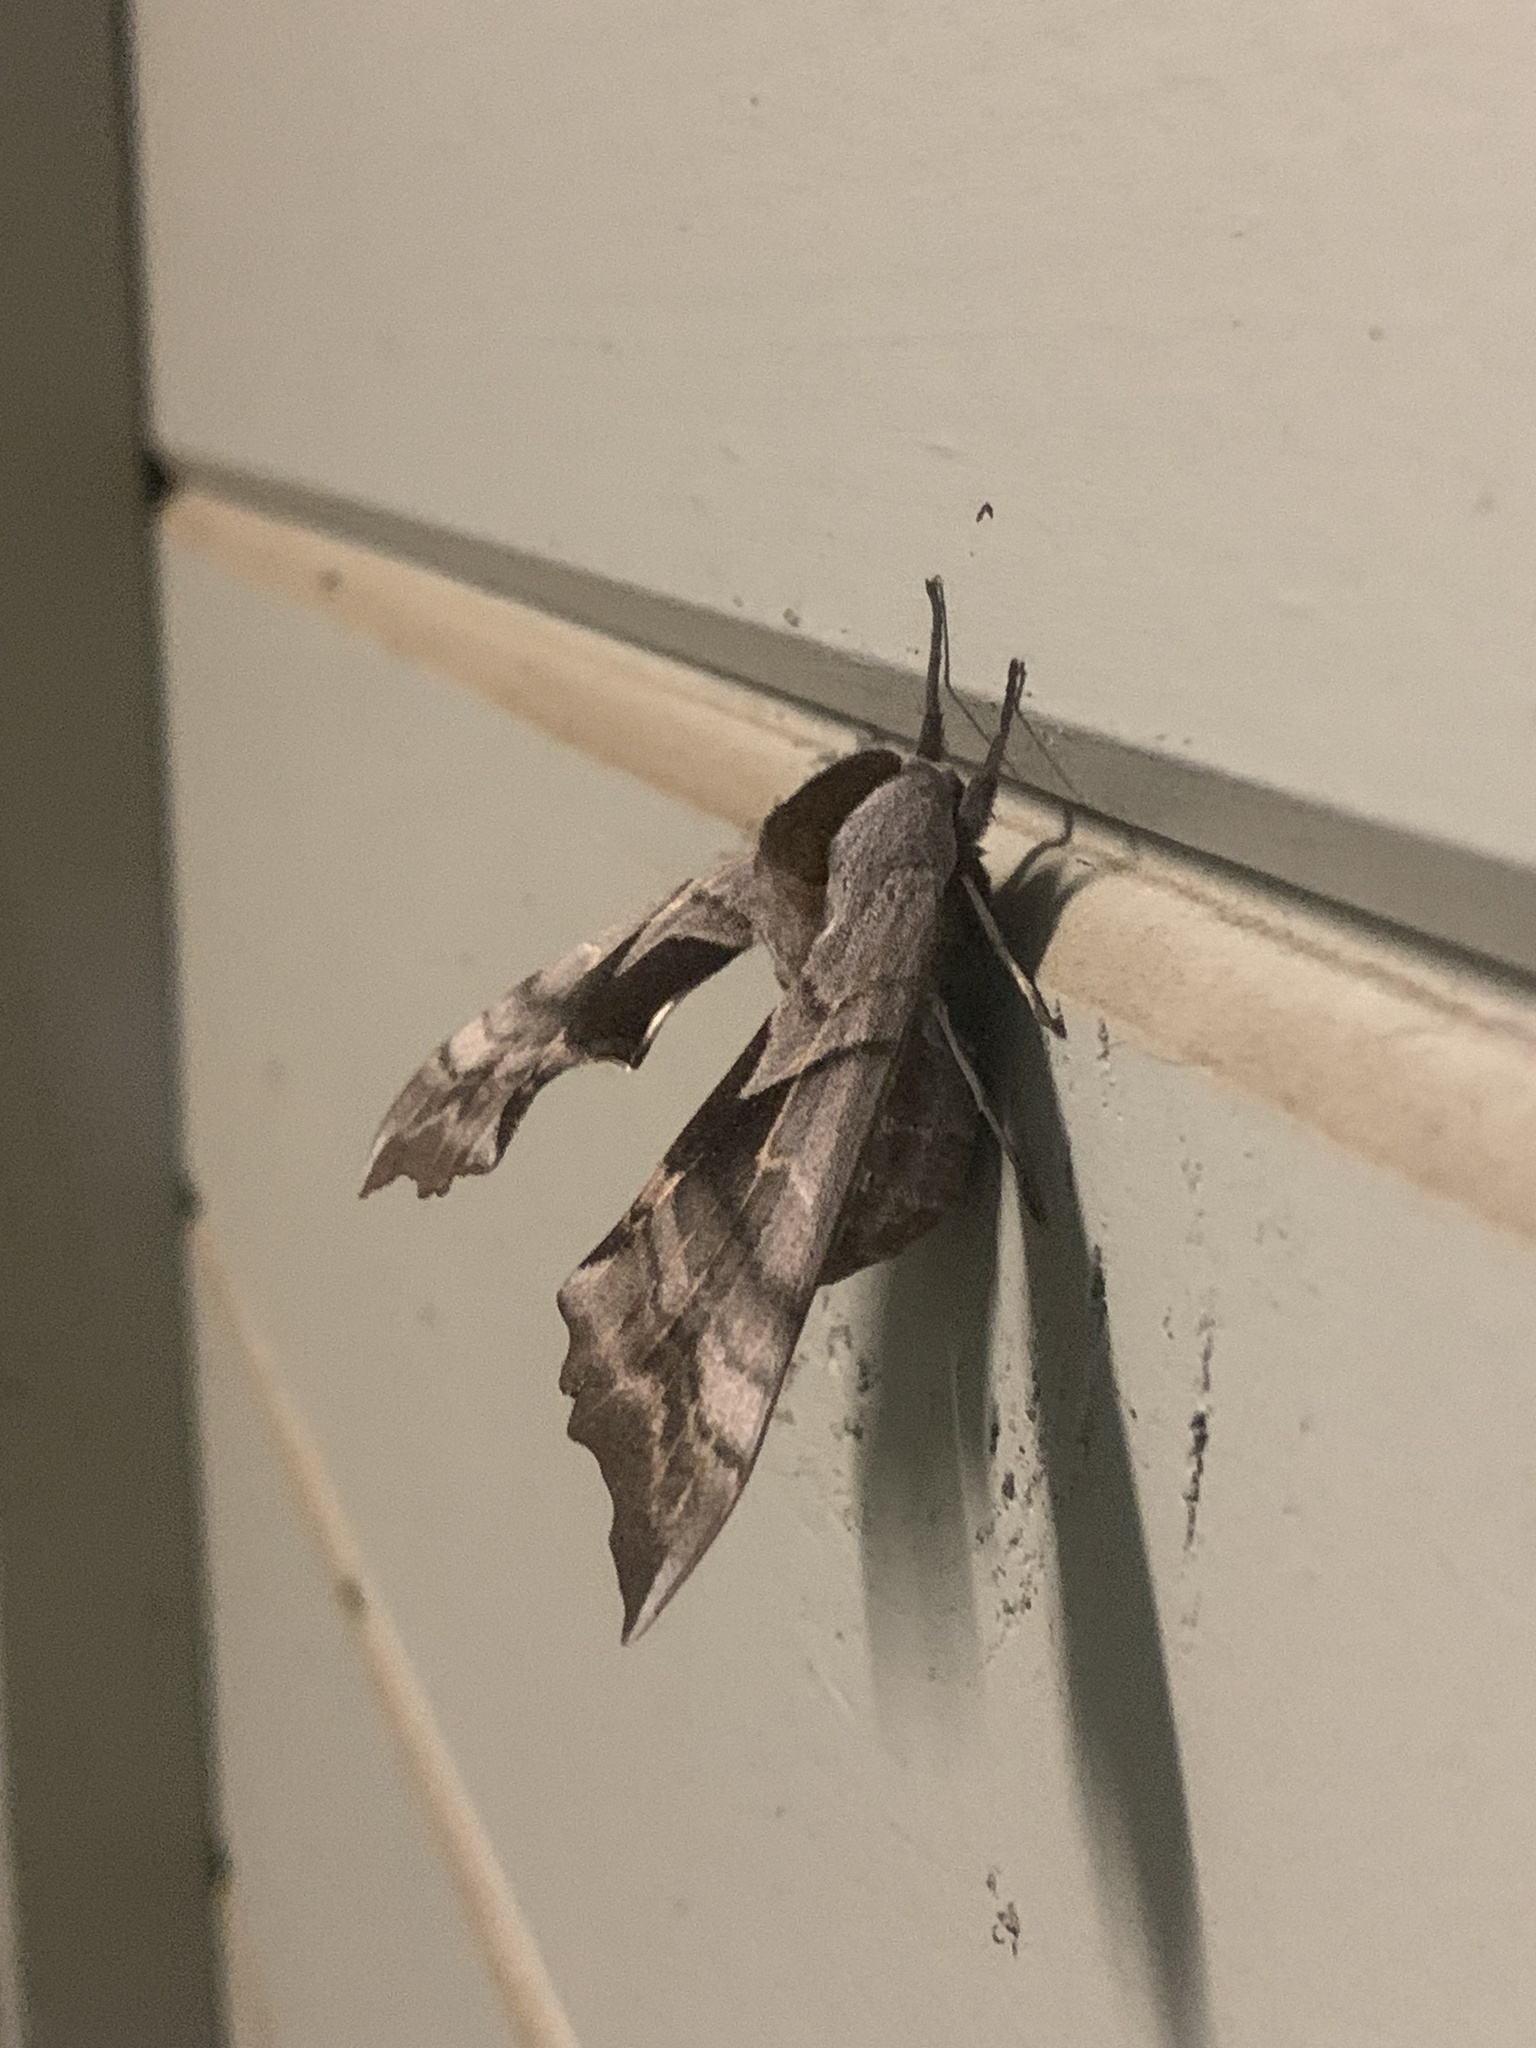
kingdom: Animalia
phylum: Arthropoda
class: Insecta
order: Lepidoptera
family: Sphingidae
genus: Smerinthus
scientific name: Smerinthus cerisyi
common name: Cerisy's sphinx moth
